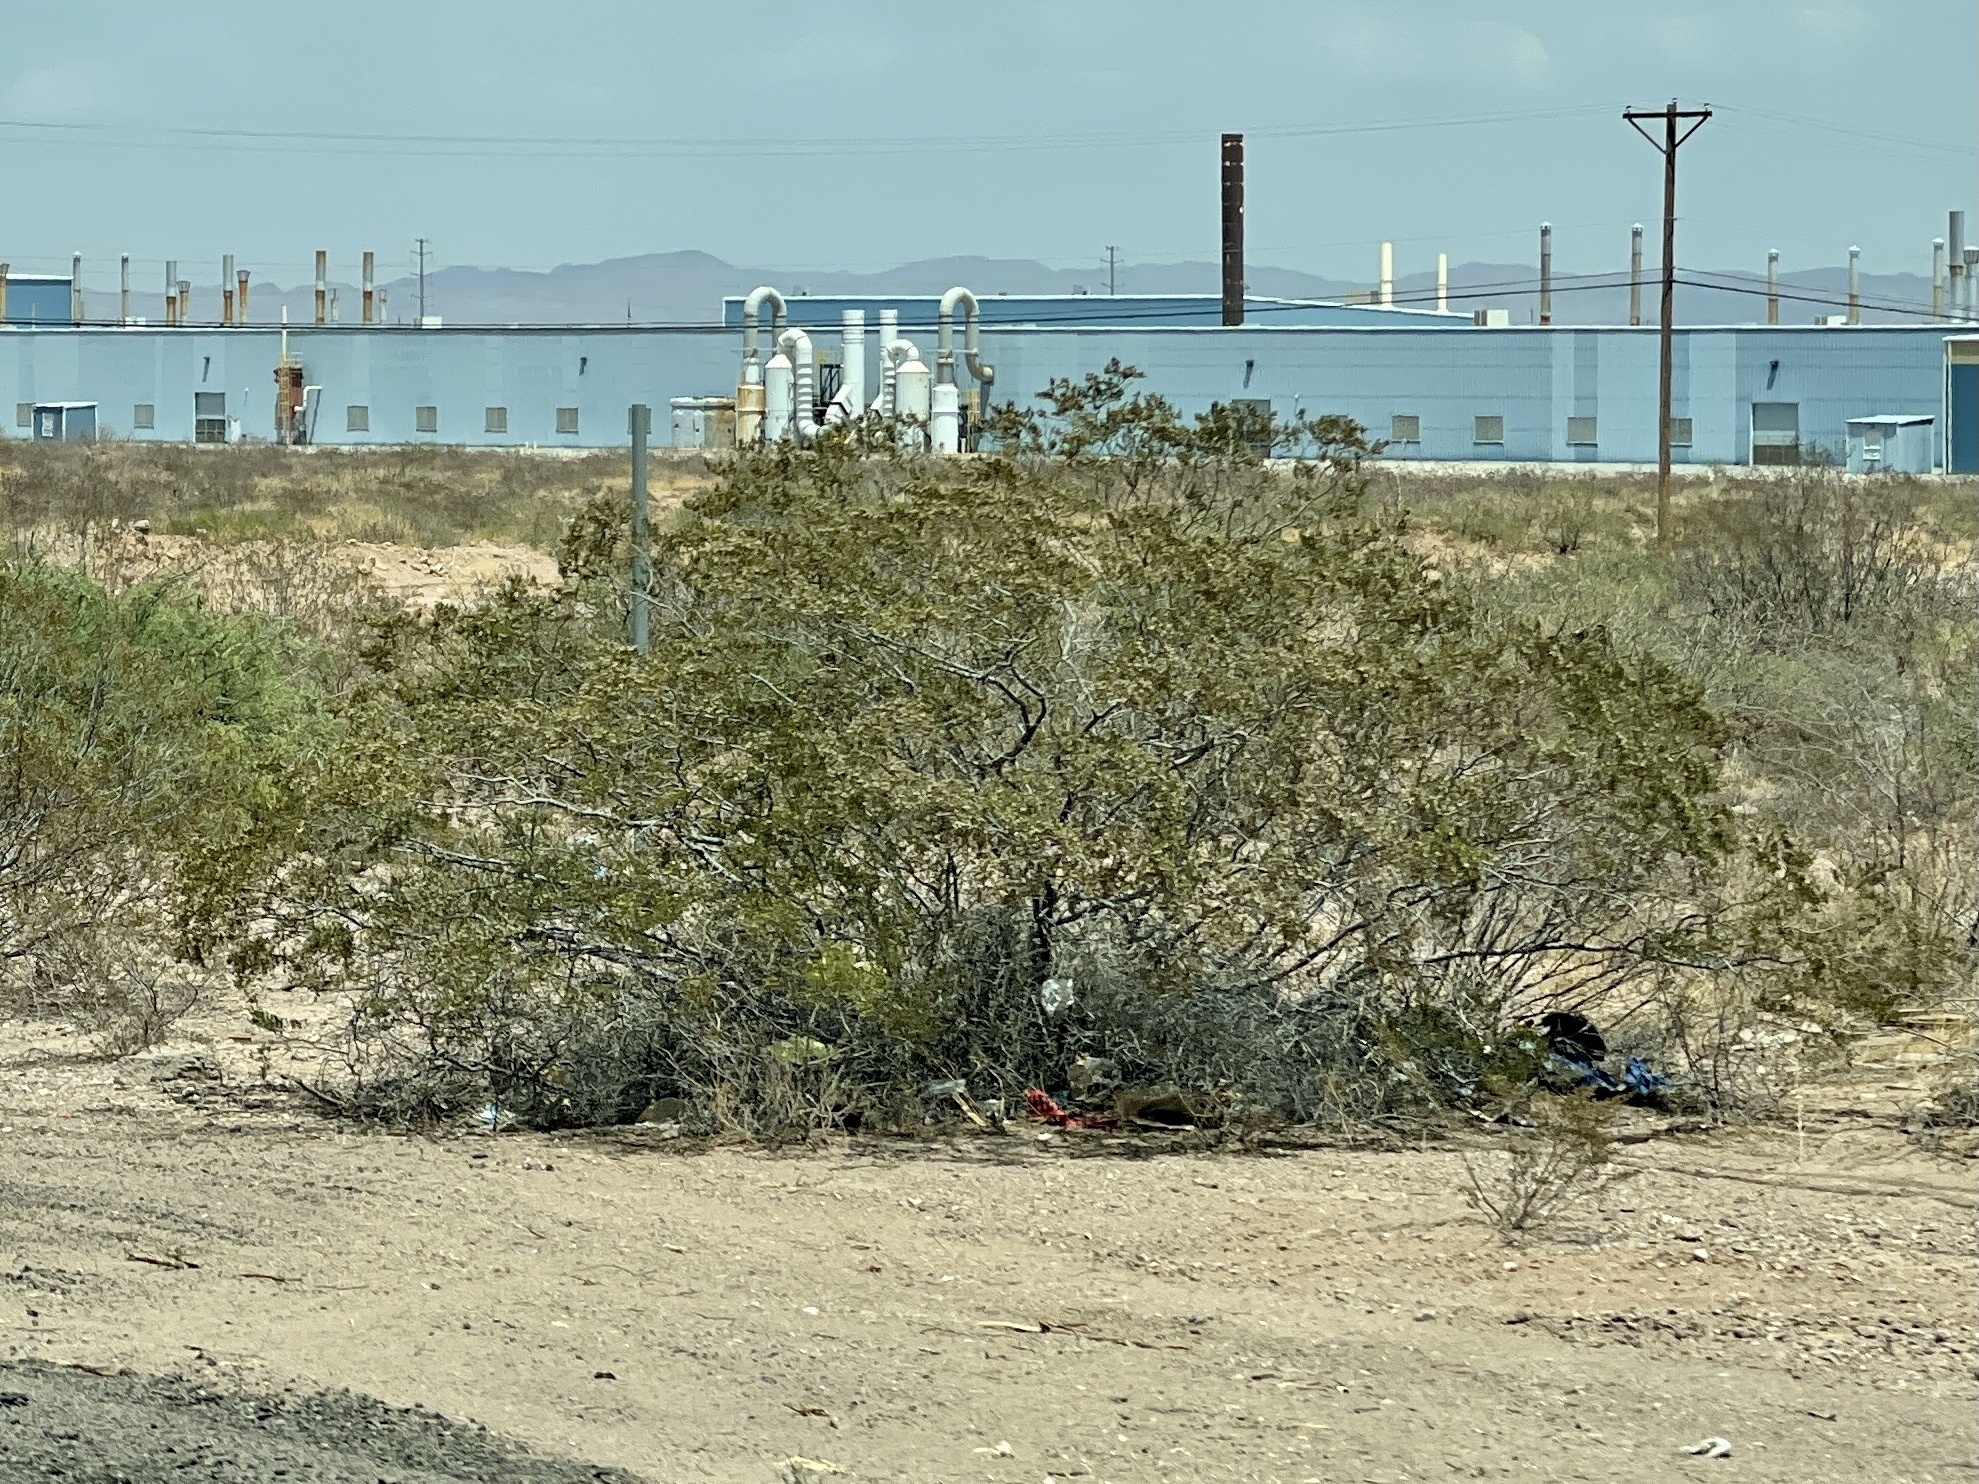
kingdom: Plantae
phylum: Tracheophyta
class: Magnoliopsida
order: Zygophyllales
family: Zygophyllaceae
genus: Larrea
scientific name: Larrea tridentata
